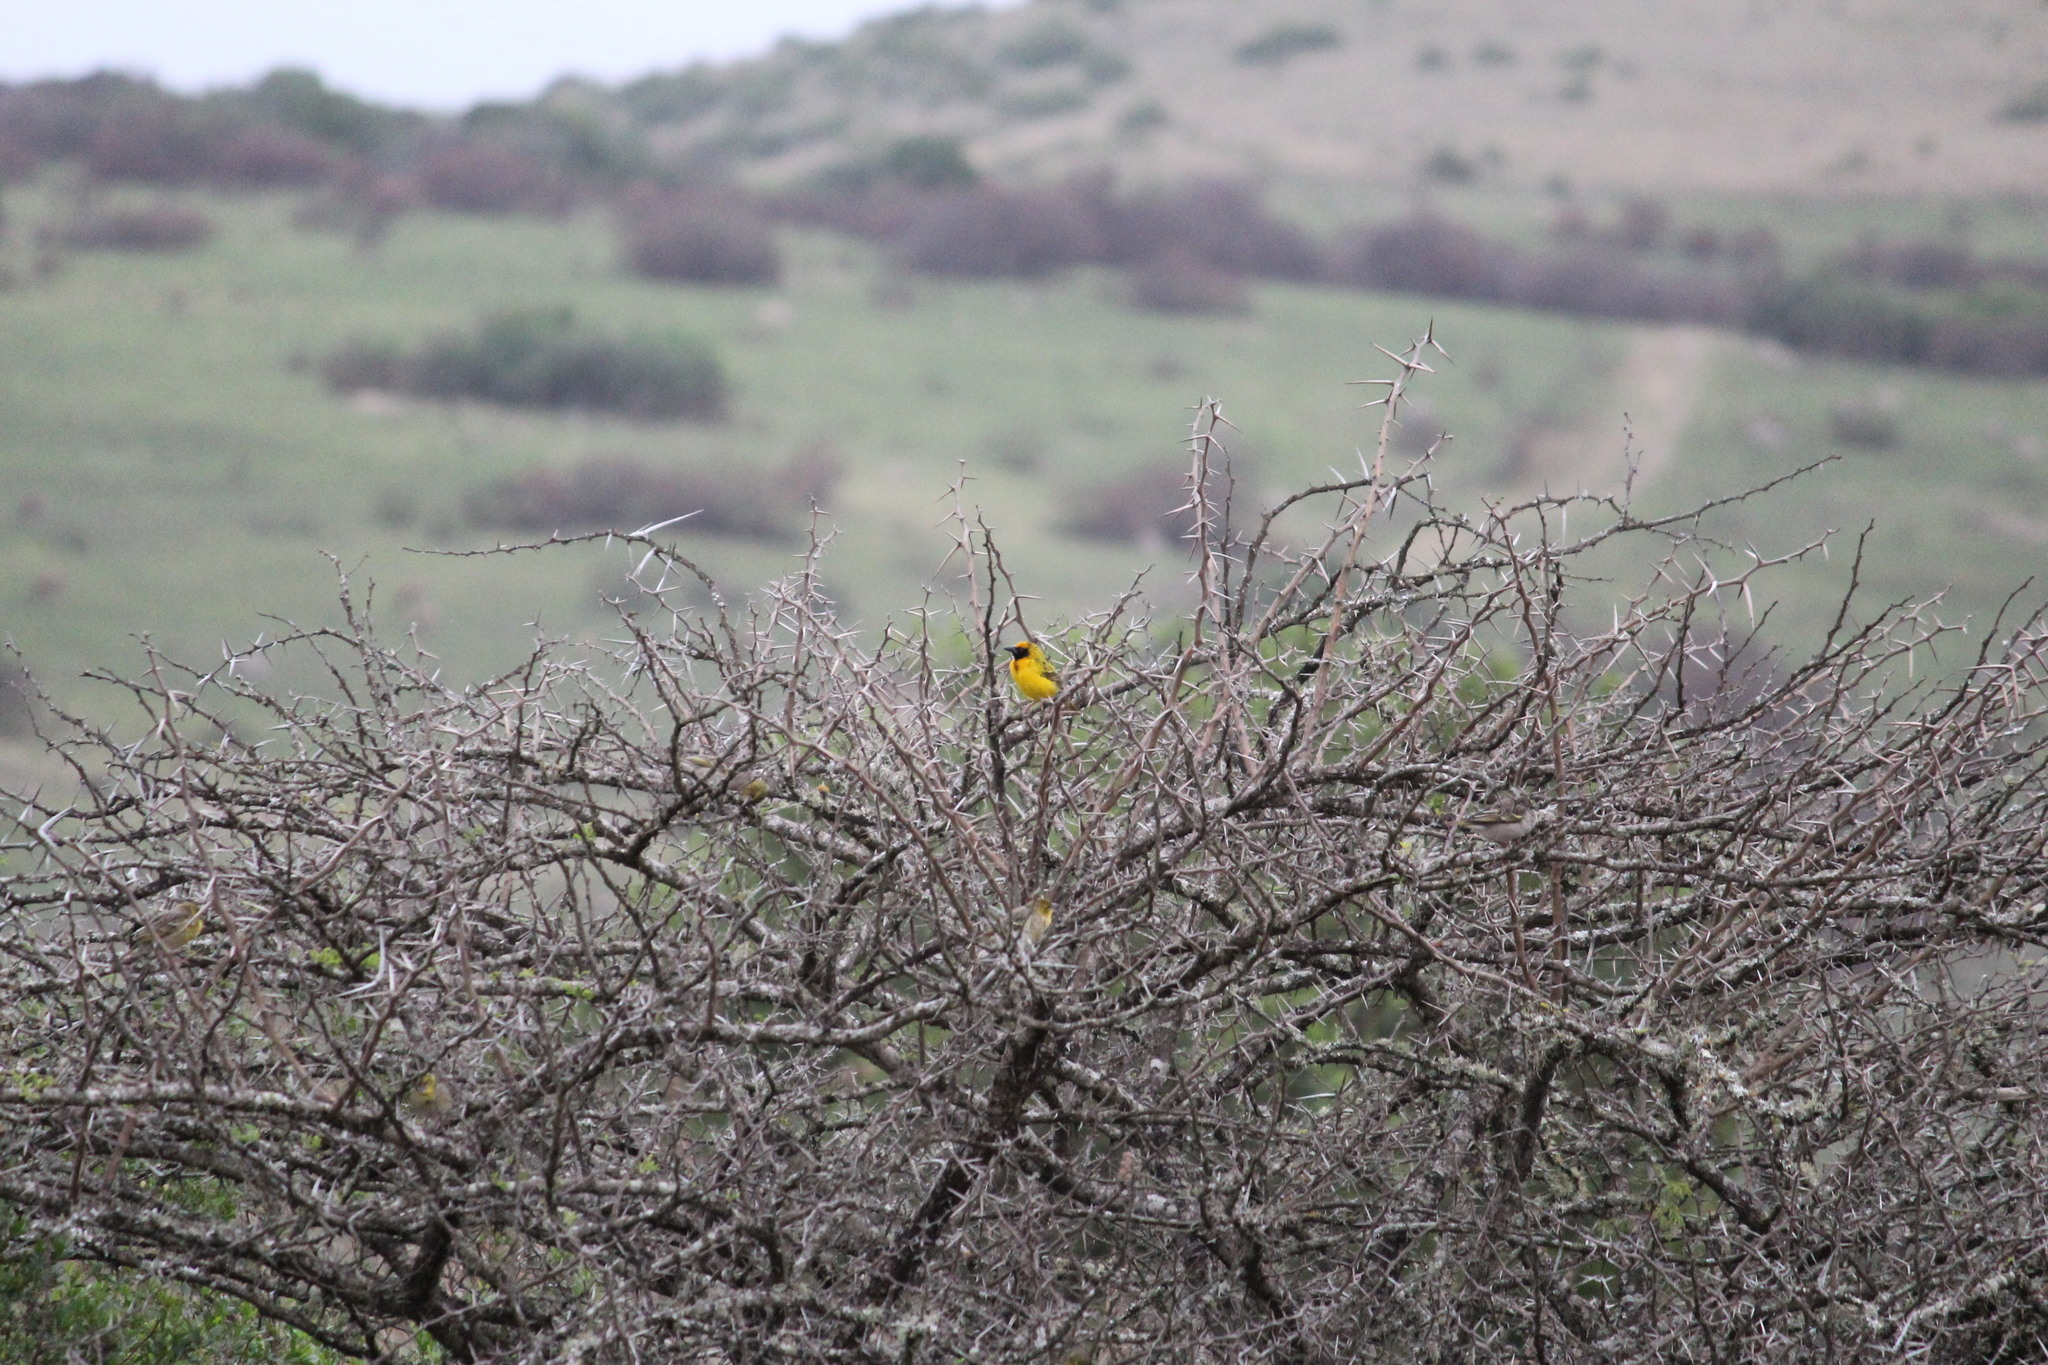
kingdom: Animalia
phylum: Chordata
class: Aves
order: Passeriformes
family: Ploceidae
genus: Ploceus
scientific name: Ploceus cucullatus
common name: Village weaver
